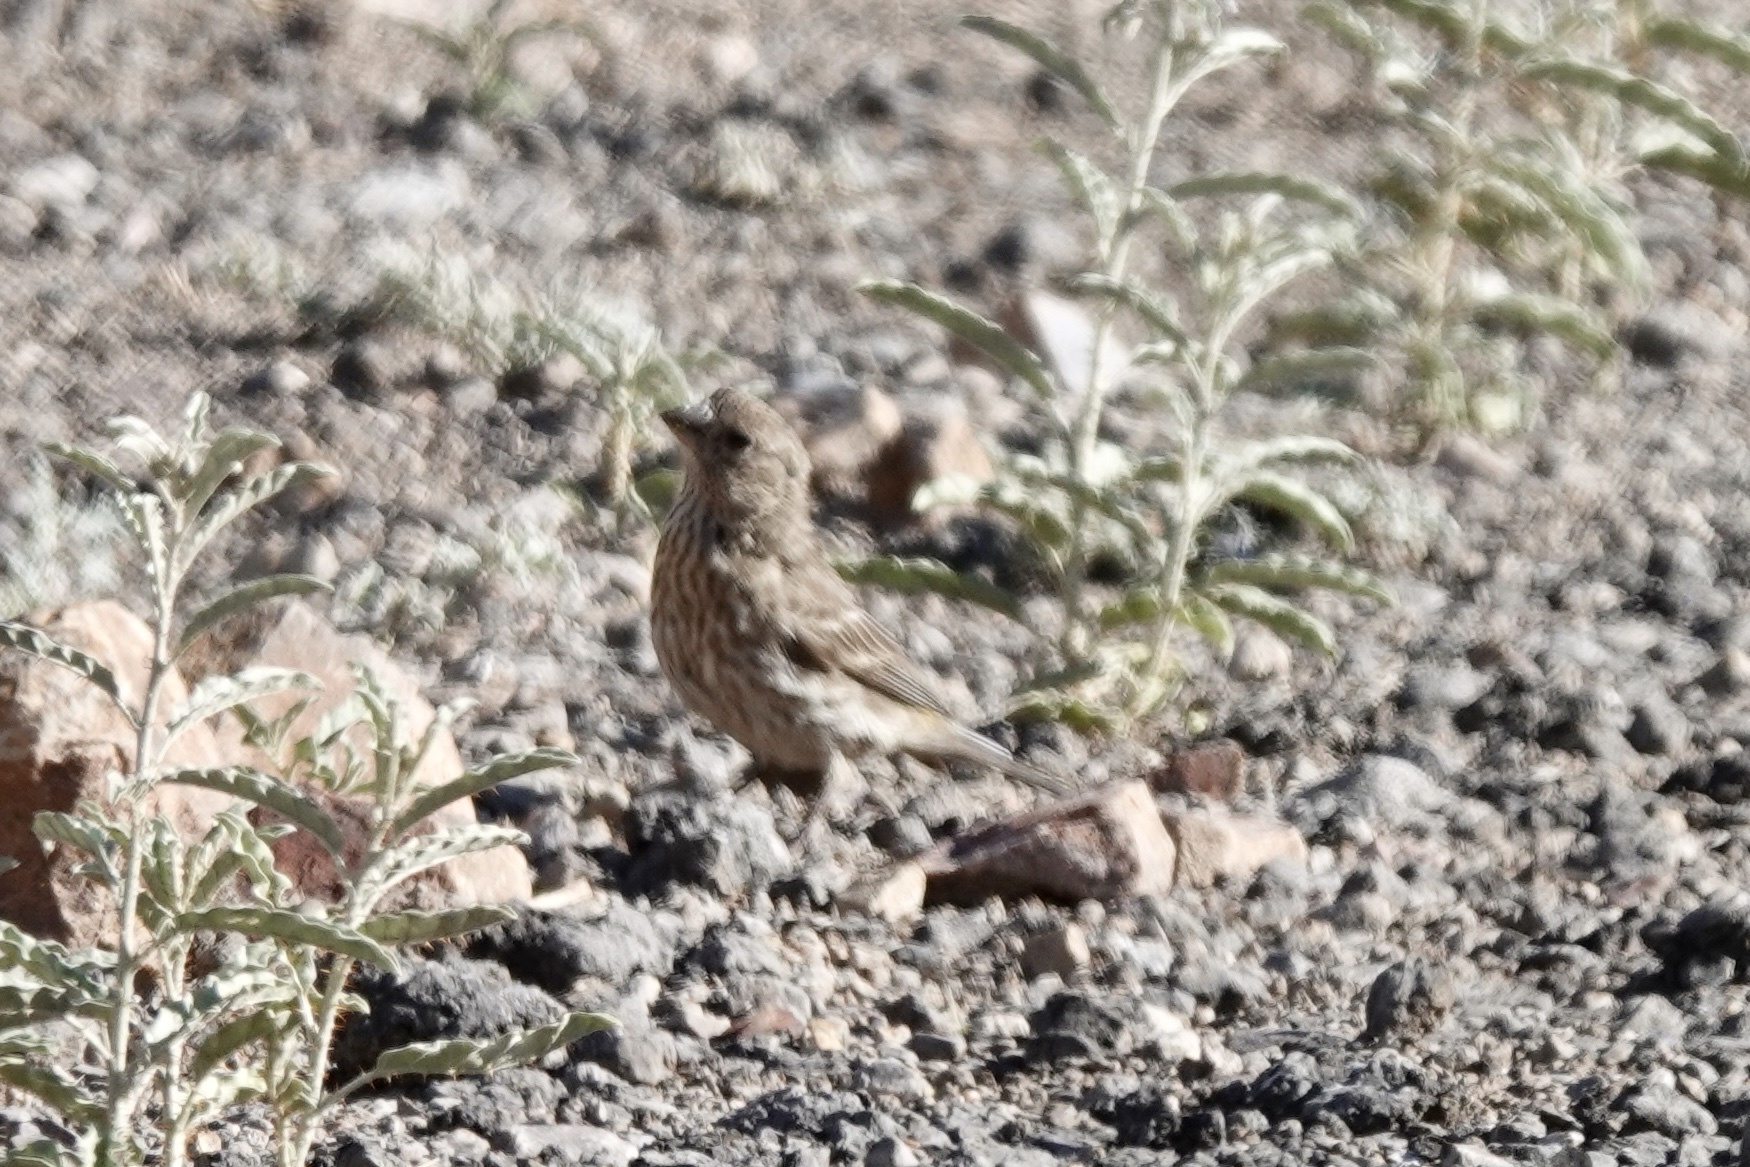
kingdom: Animalia
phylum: Chordata
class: Aves
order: Passeriformes
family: Fringillidae
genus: Haemorhous
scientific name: Haemorhous mexicanus
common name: House finch
